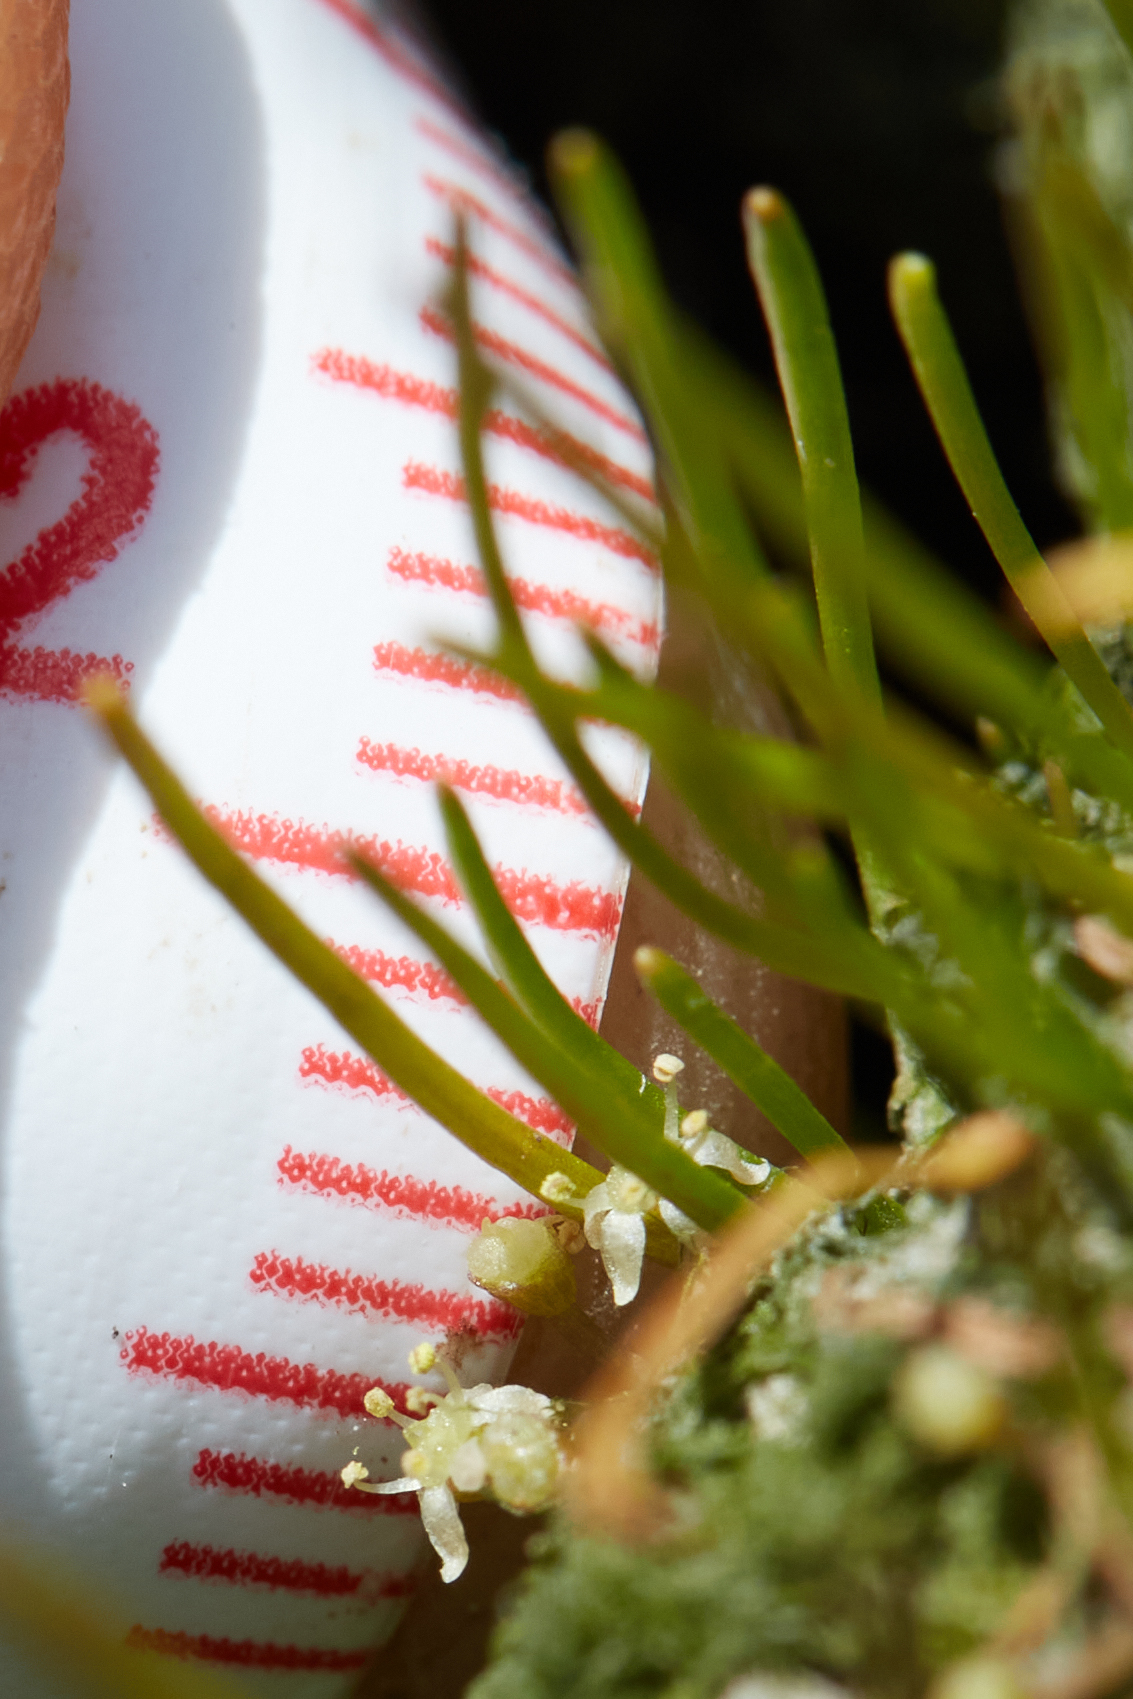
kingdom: Plantae
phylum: Tracheophyta
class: Magnoliopsida
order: Apiales
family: Apiaceae
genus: Lilaeopsis
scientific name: Lilaeopsis occidentalis
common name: Western grasswort
